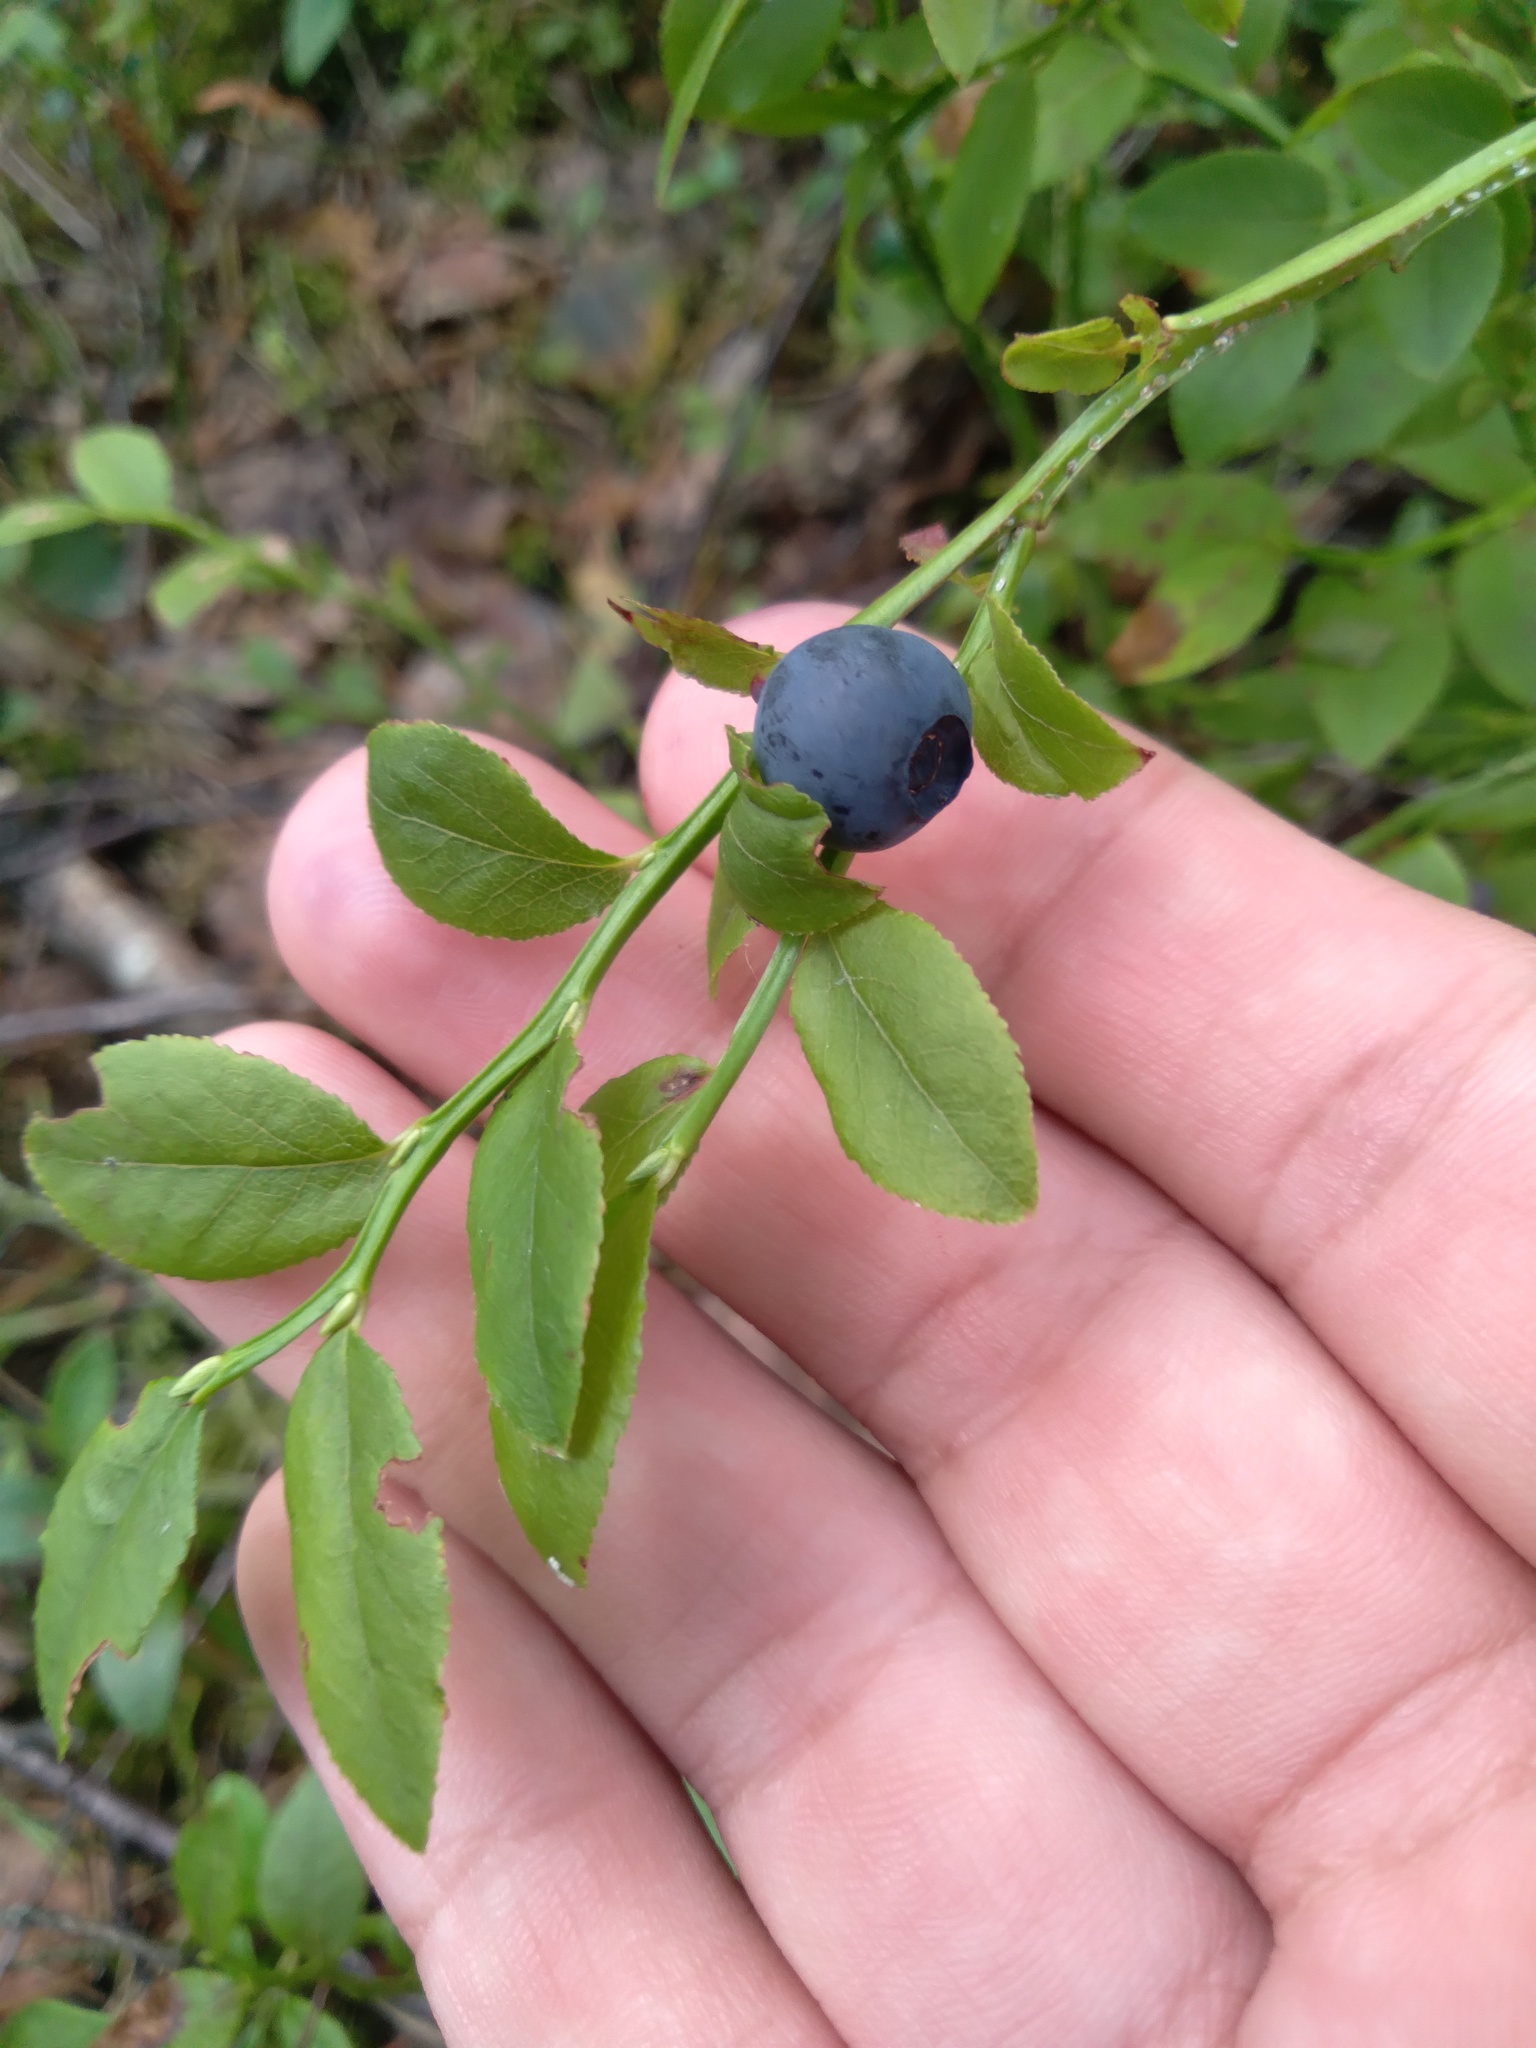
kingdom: Plantae
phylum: Tracheophyta
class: Magnoliopsida
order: Ericales
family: Ericaceae
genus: Vaccinium
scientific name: Vaccinium myrtillus
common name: Bilberry
